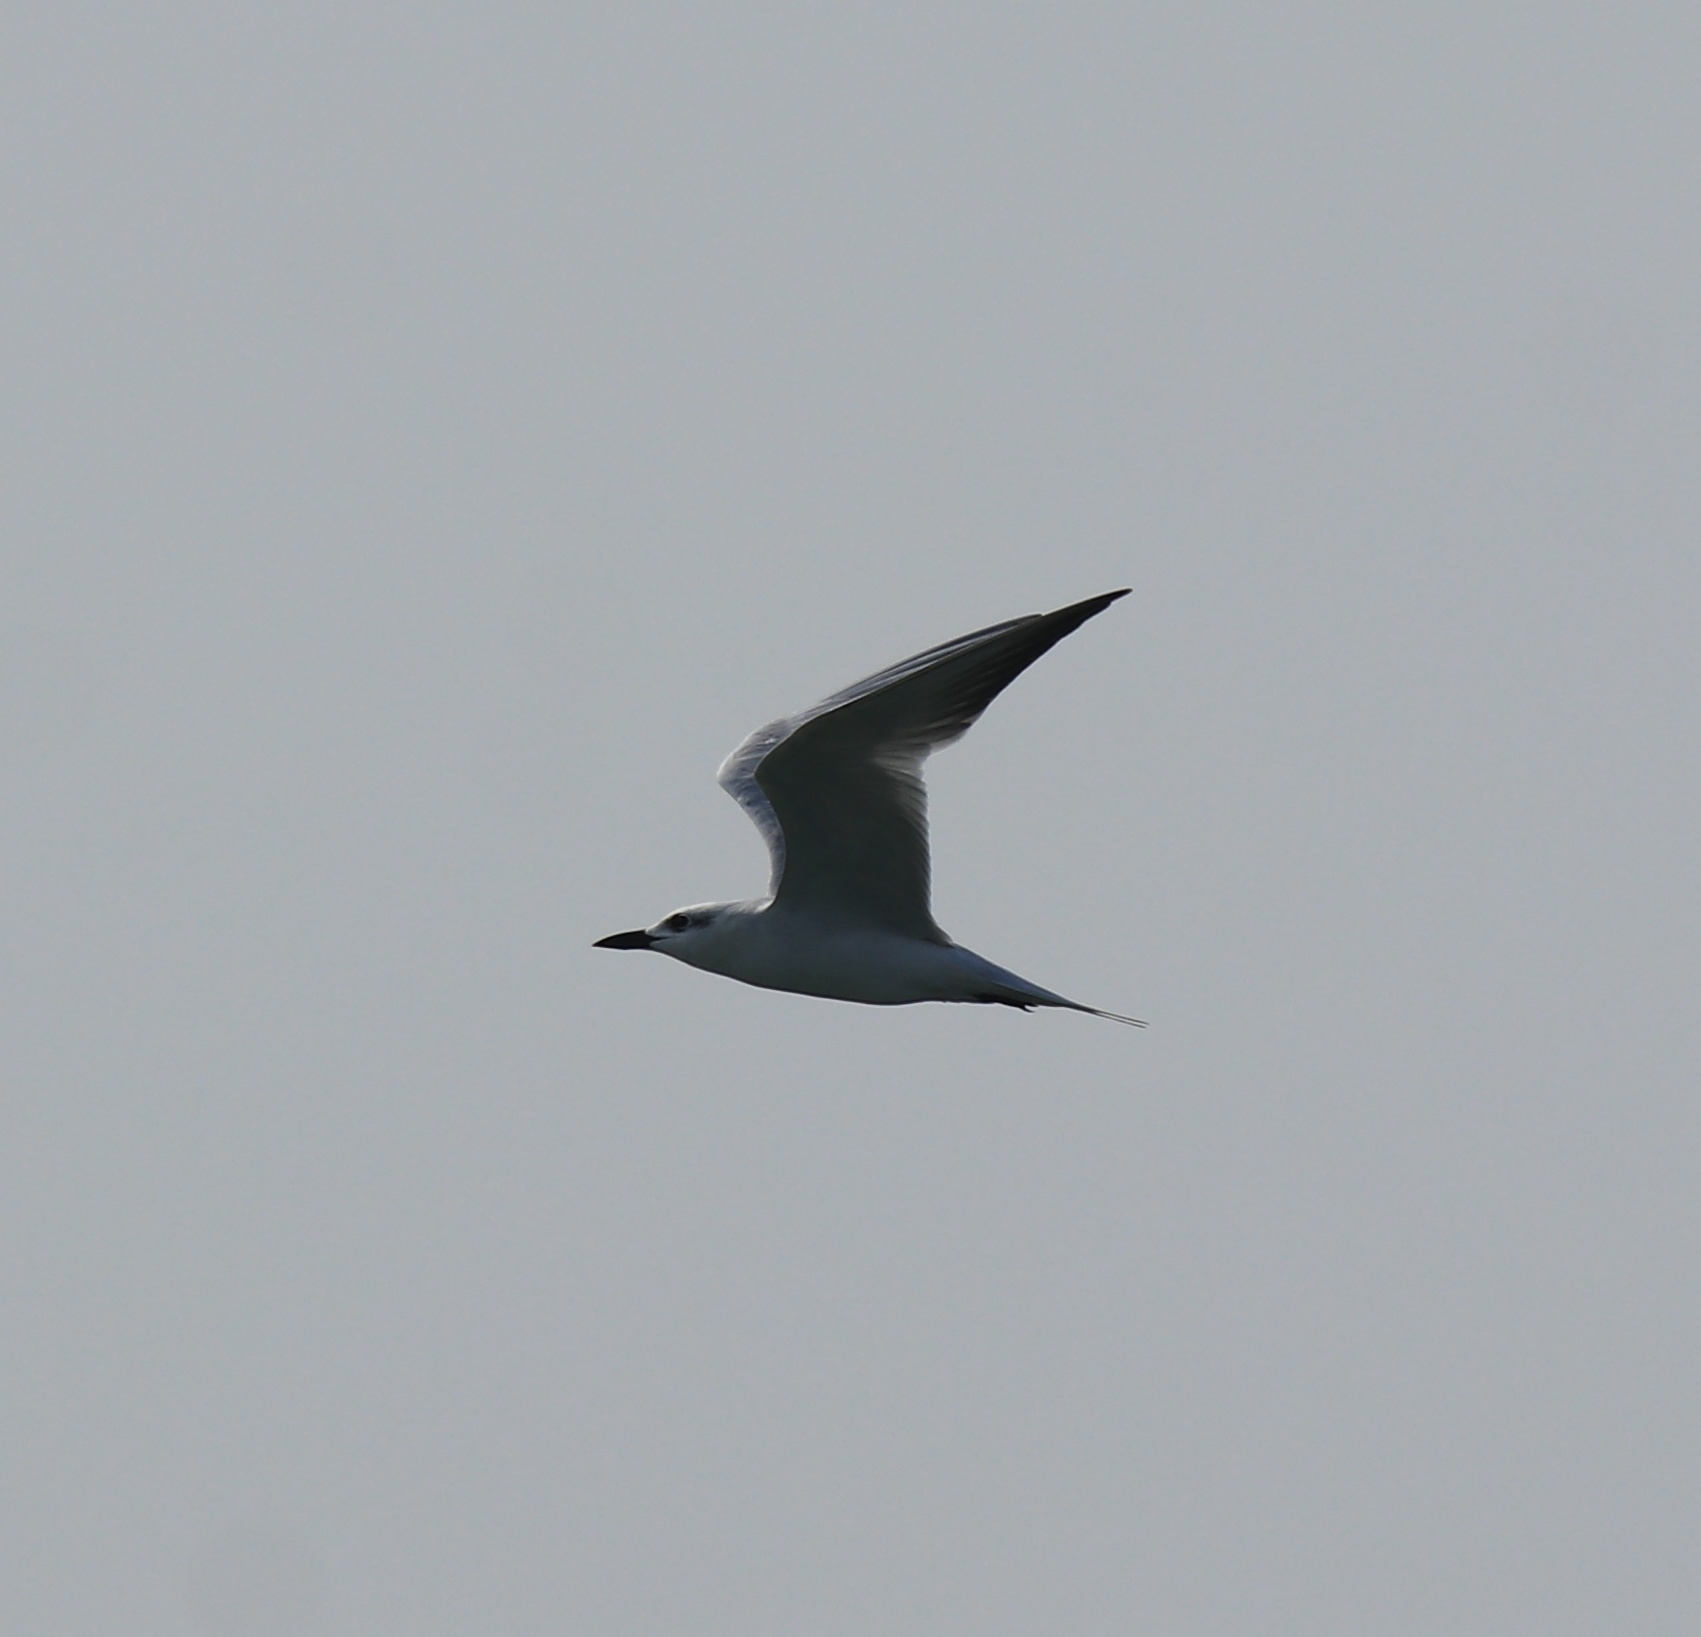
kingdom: Animalia
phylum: Chordata
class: Aves
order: Charadriiformes
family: Laridae
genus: Gelochelidon
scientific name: Gelochelidon nilotica
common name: Gull-billed tern
